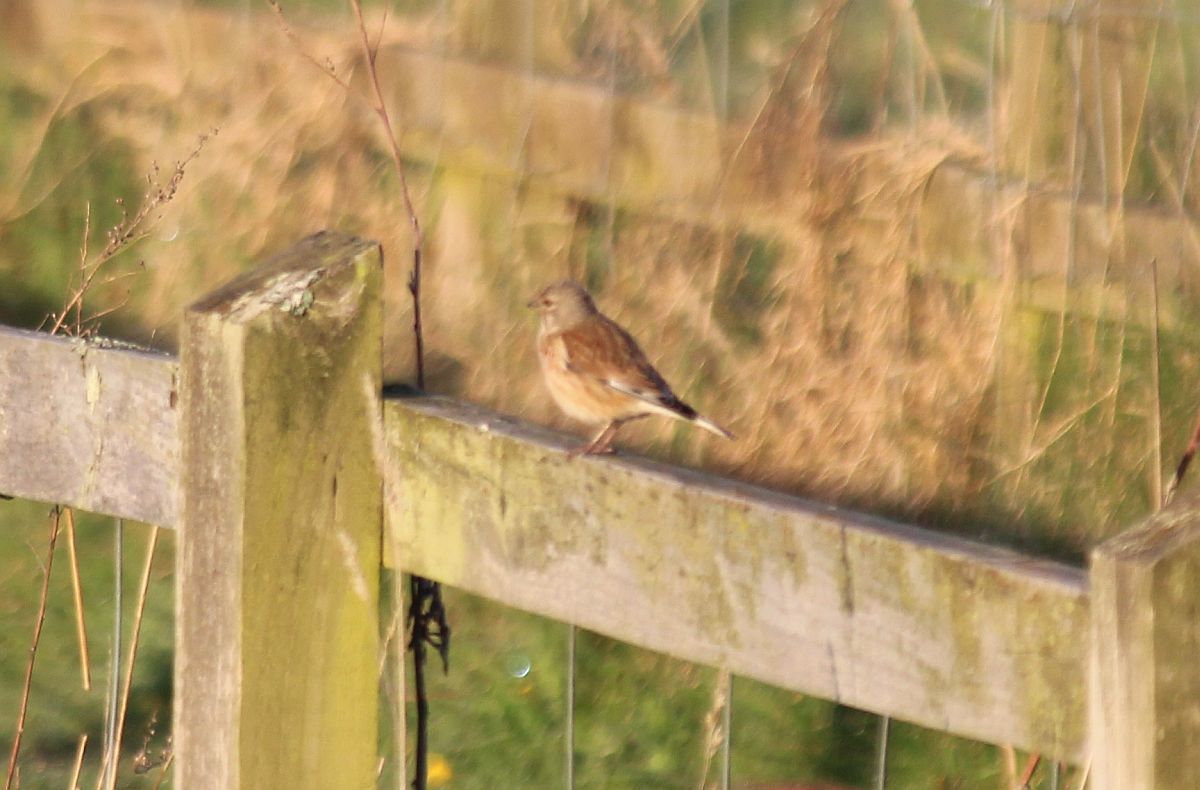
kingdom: Animalia
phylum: Chordata
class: Aves
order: Passeriformes
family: Fringillidae
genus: Linaria
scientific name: Linaria cannabina
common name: Common linnet
